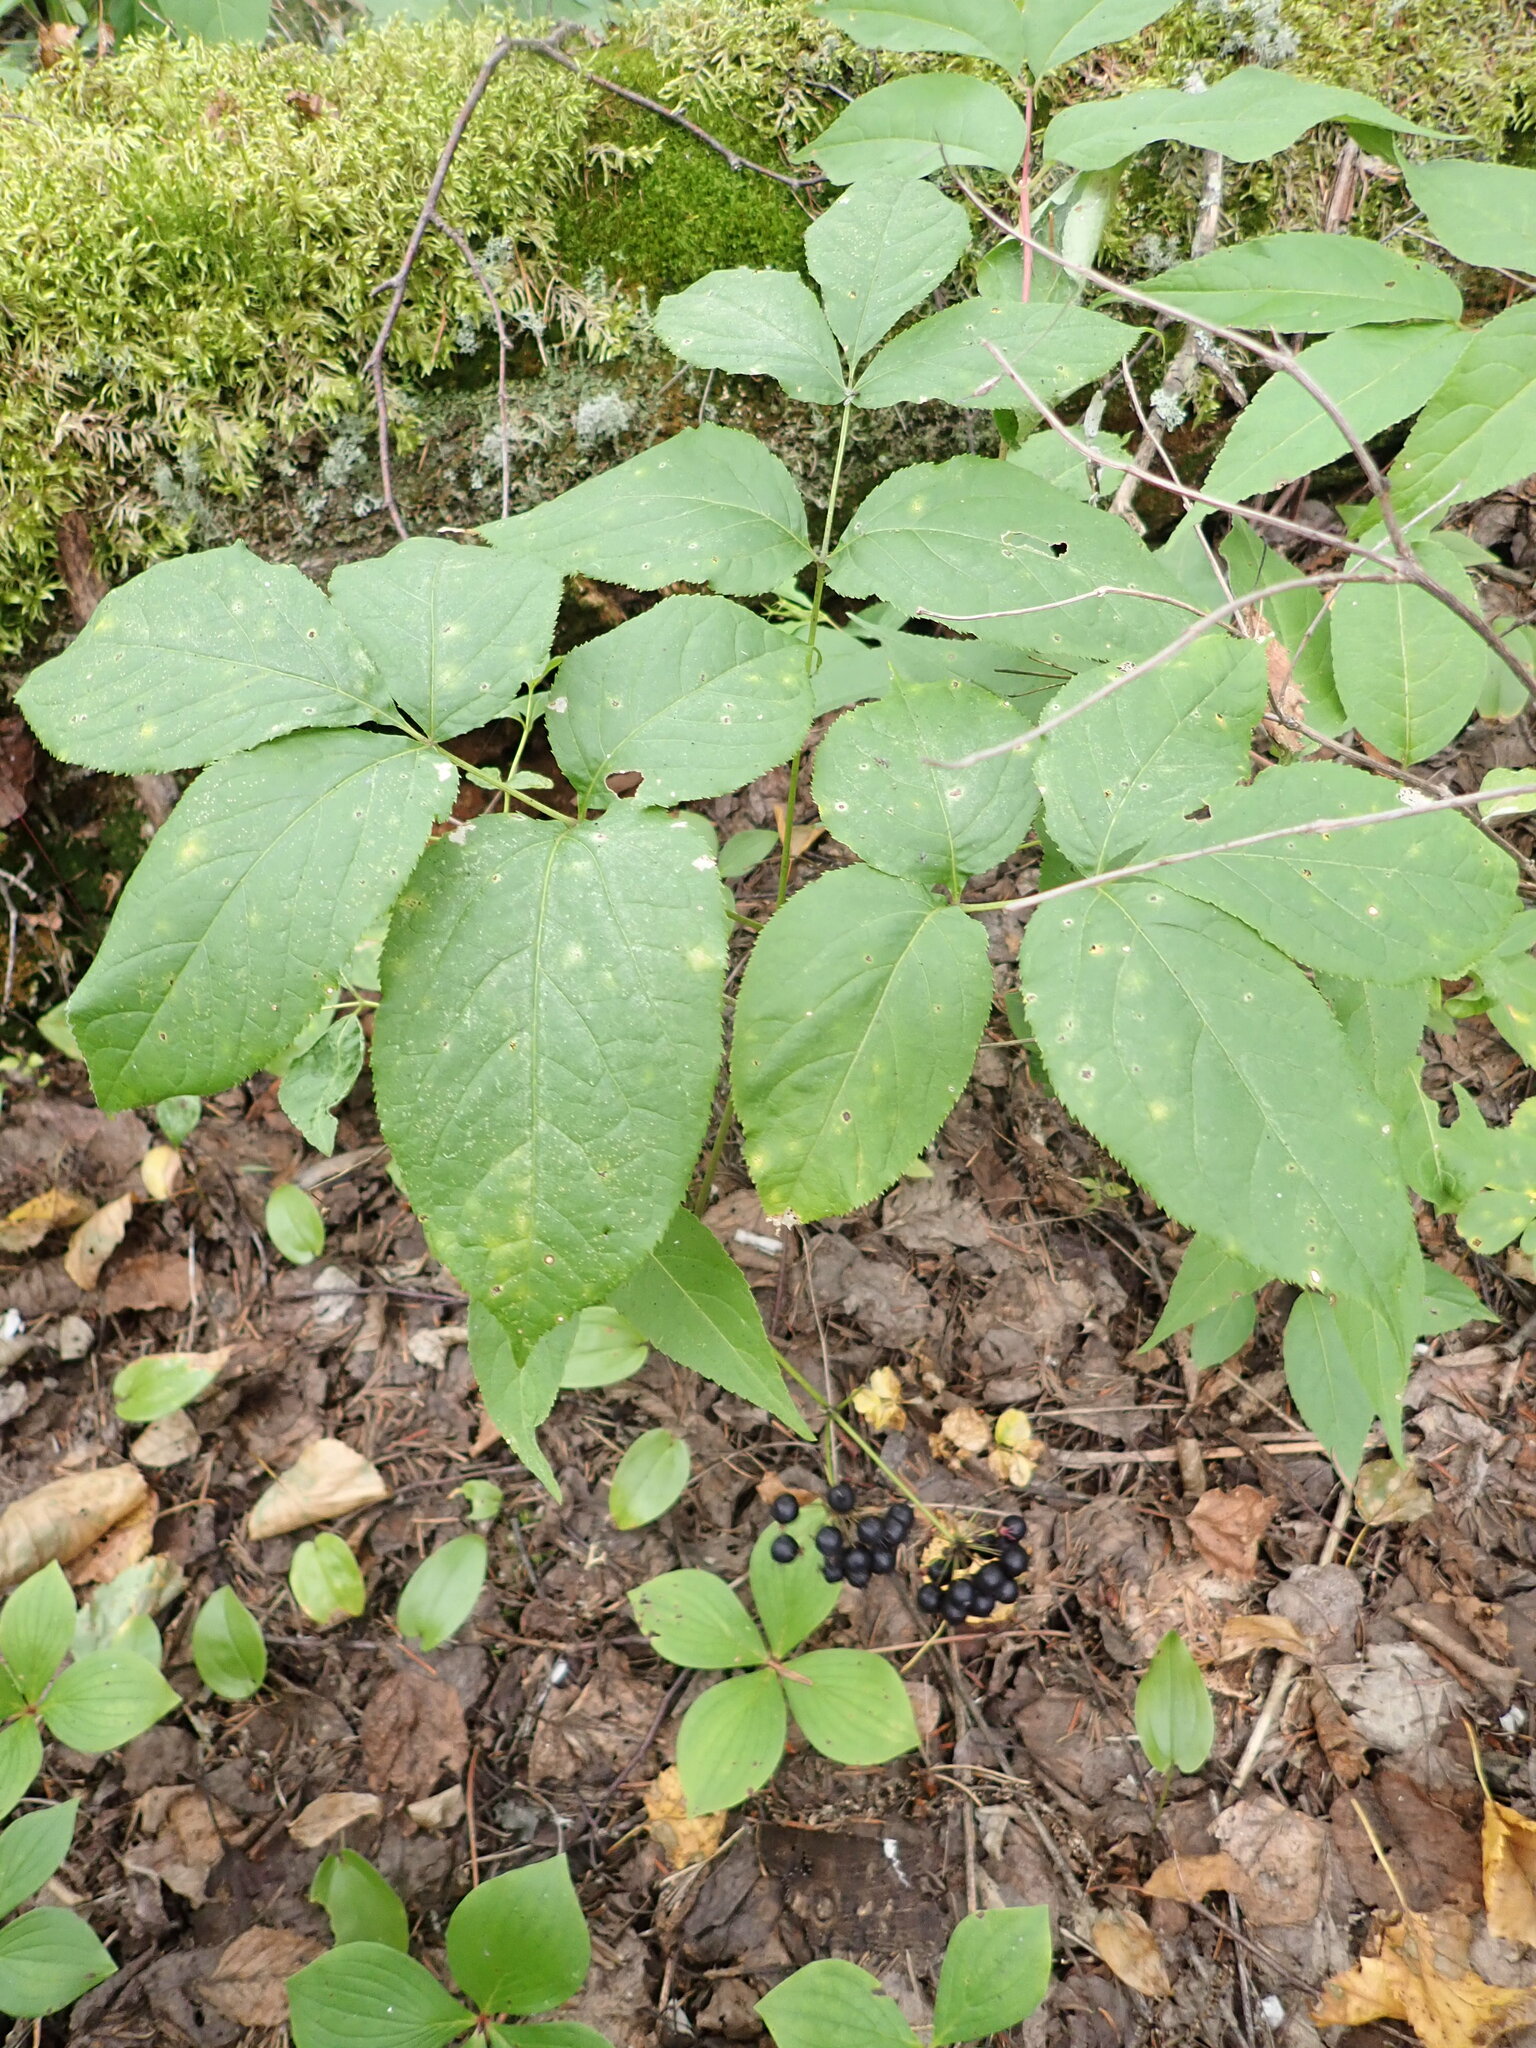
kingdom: Plantae
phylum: Tracheophyta
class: Magnoliopsida
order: Apiales
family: Araliaceae
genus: Aralia
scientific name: Aralia nudicaulis
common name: Wild sarsaparilla
